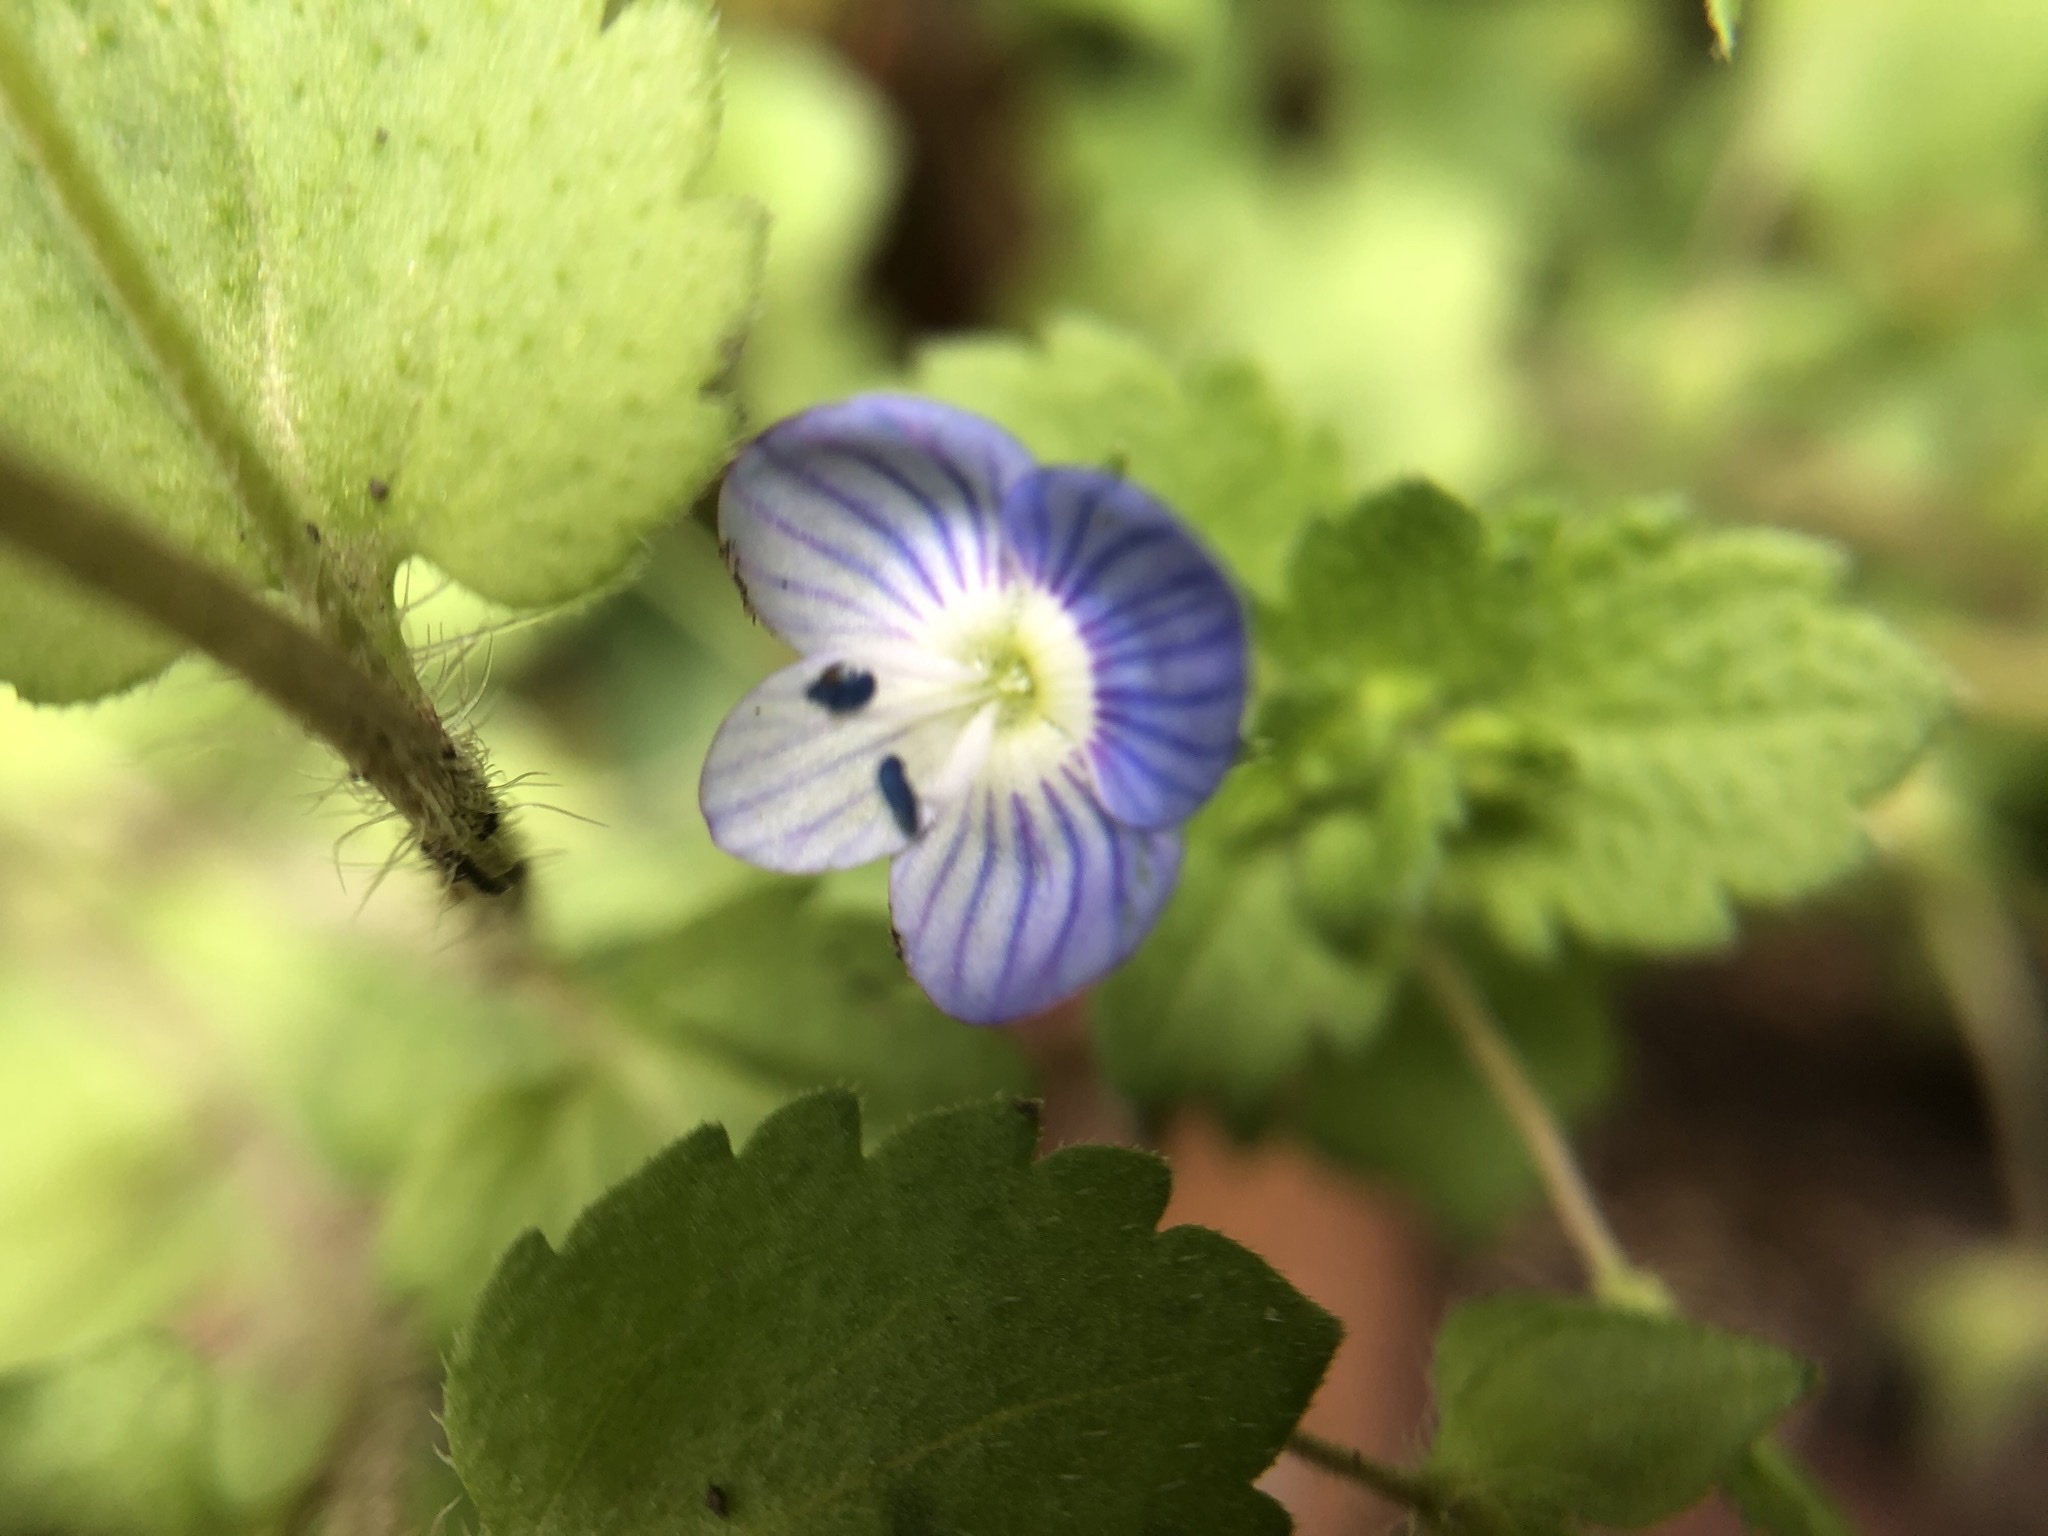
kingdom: Plantae
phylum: Tracheophyta
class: Magnoliopsida
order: Lamiales
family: Plantaginaceae
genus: Veronica
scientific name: Veronica persica
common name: Common field-speedwell
